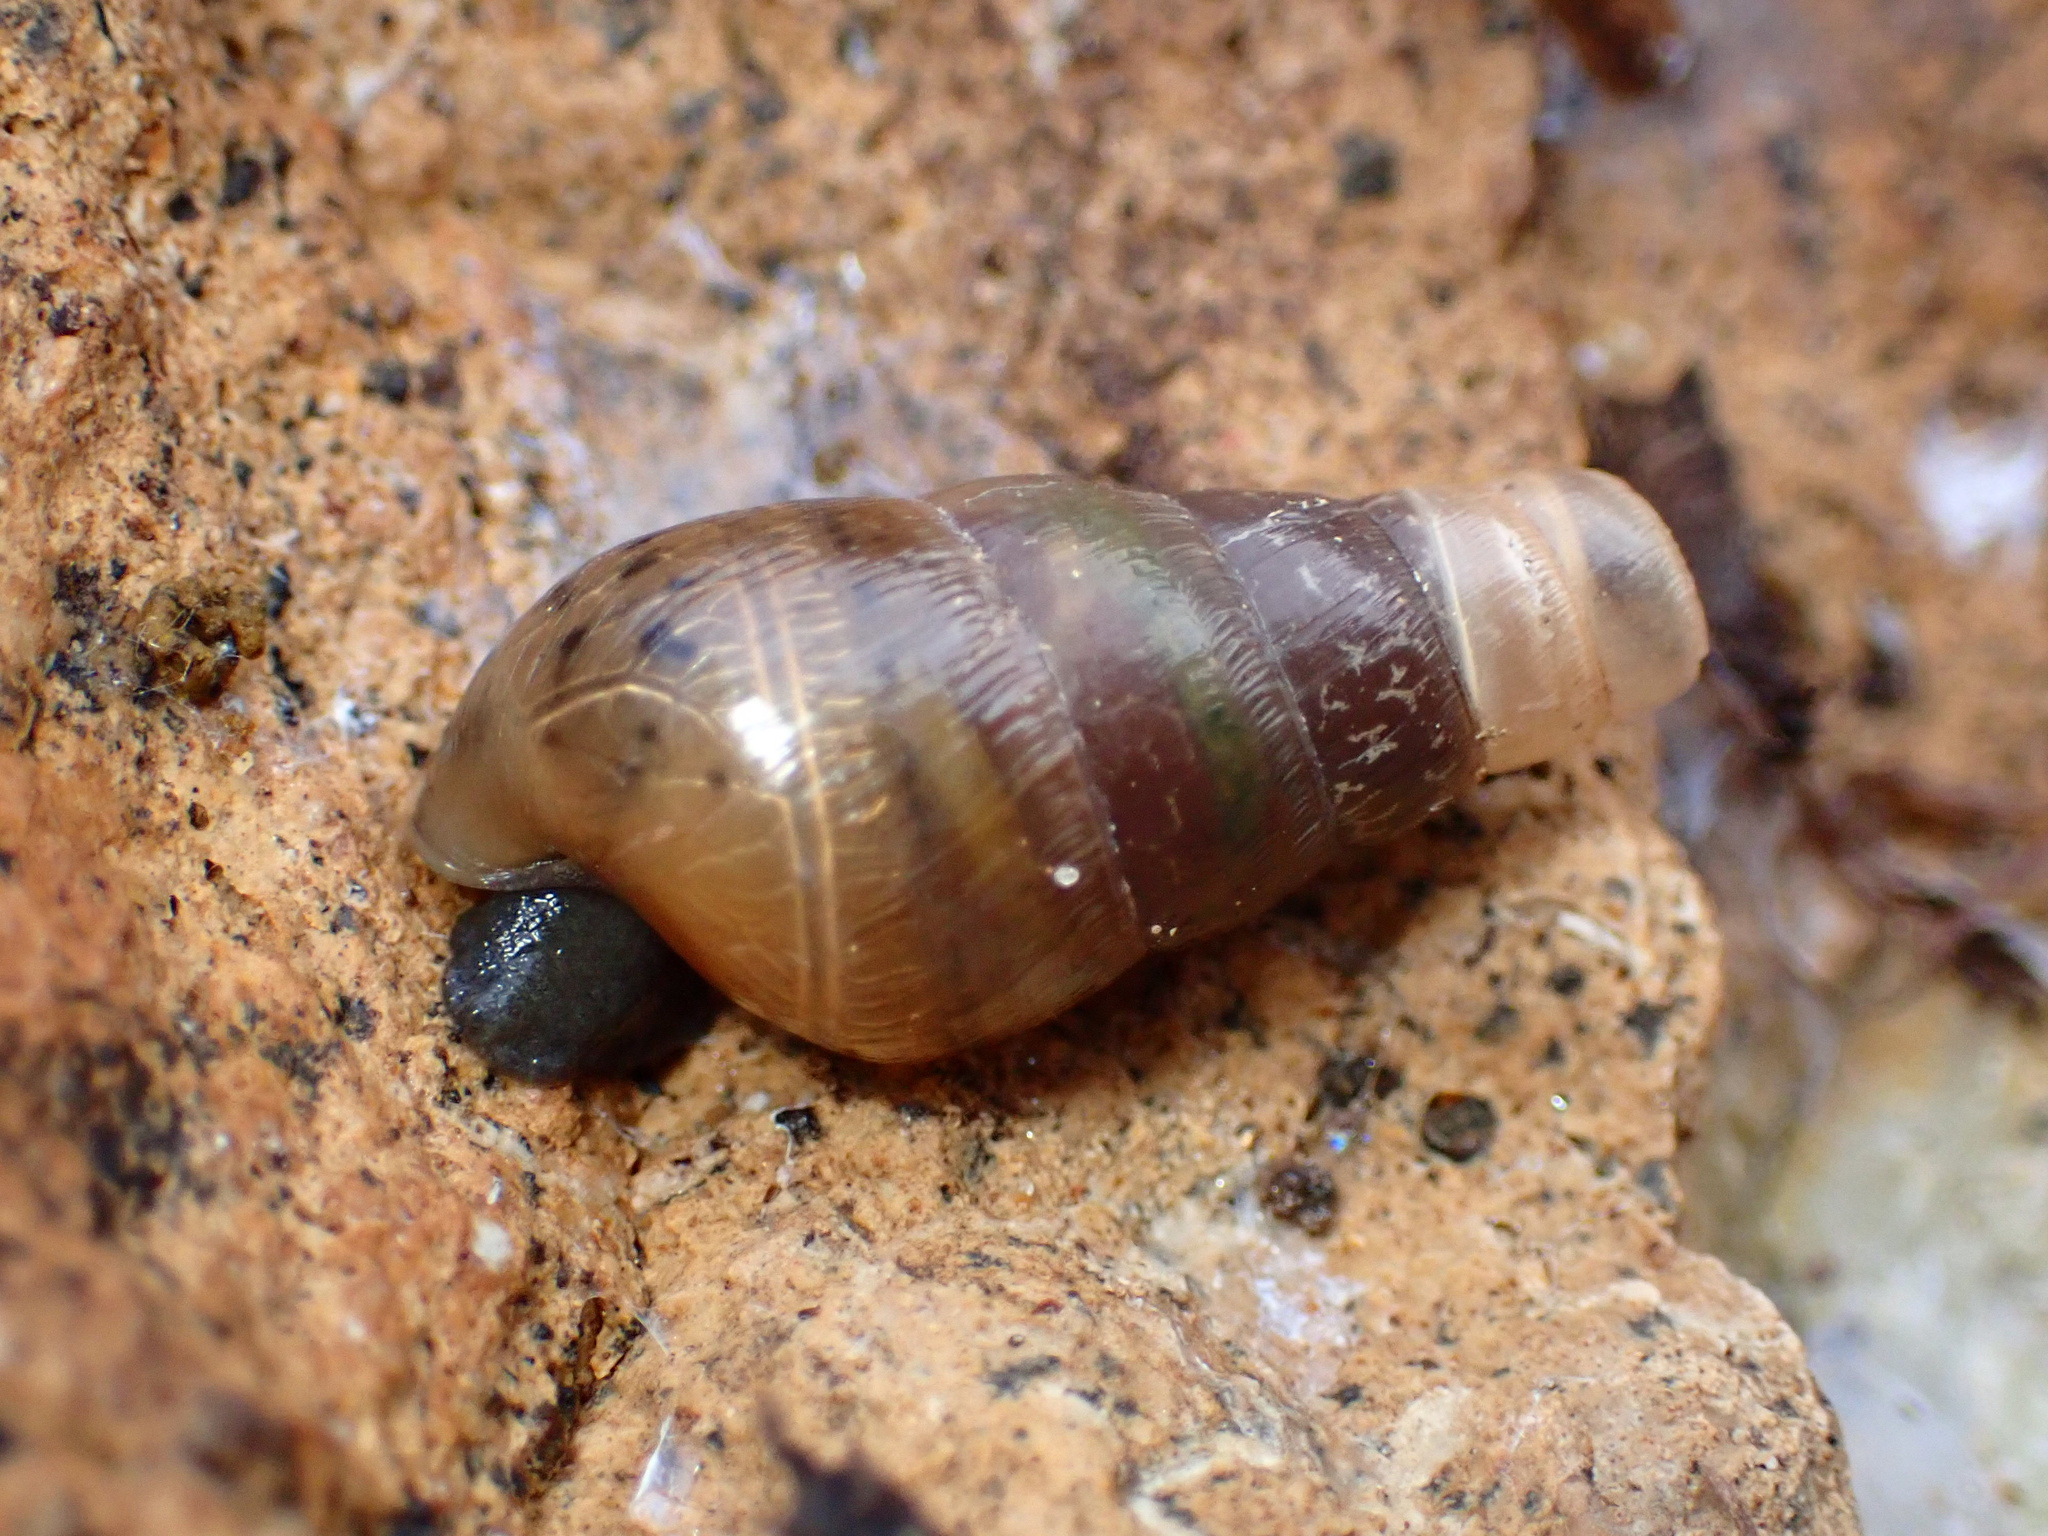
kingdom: Animalia
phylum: Mollusca
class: Gastropoda
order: Stylommatophora
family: Achatinidae
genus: Rumina
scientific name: Rumina decollata
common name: Decollate snail
